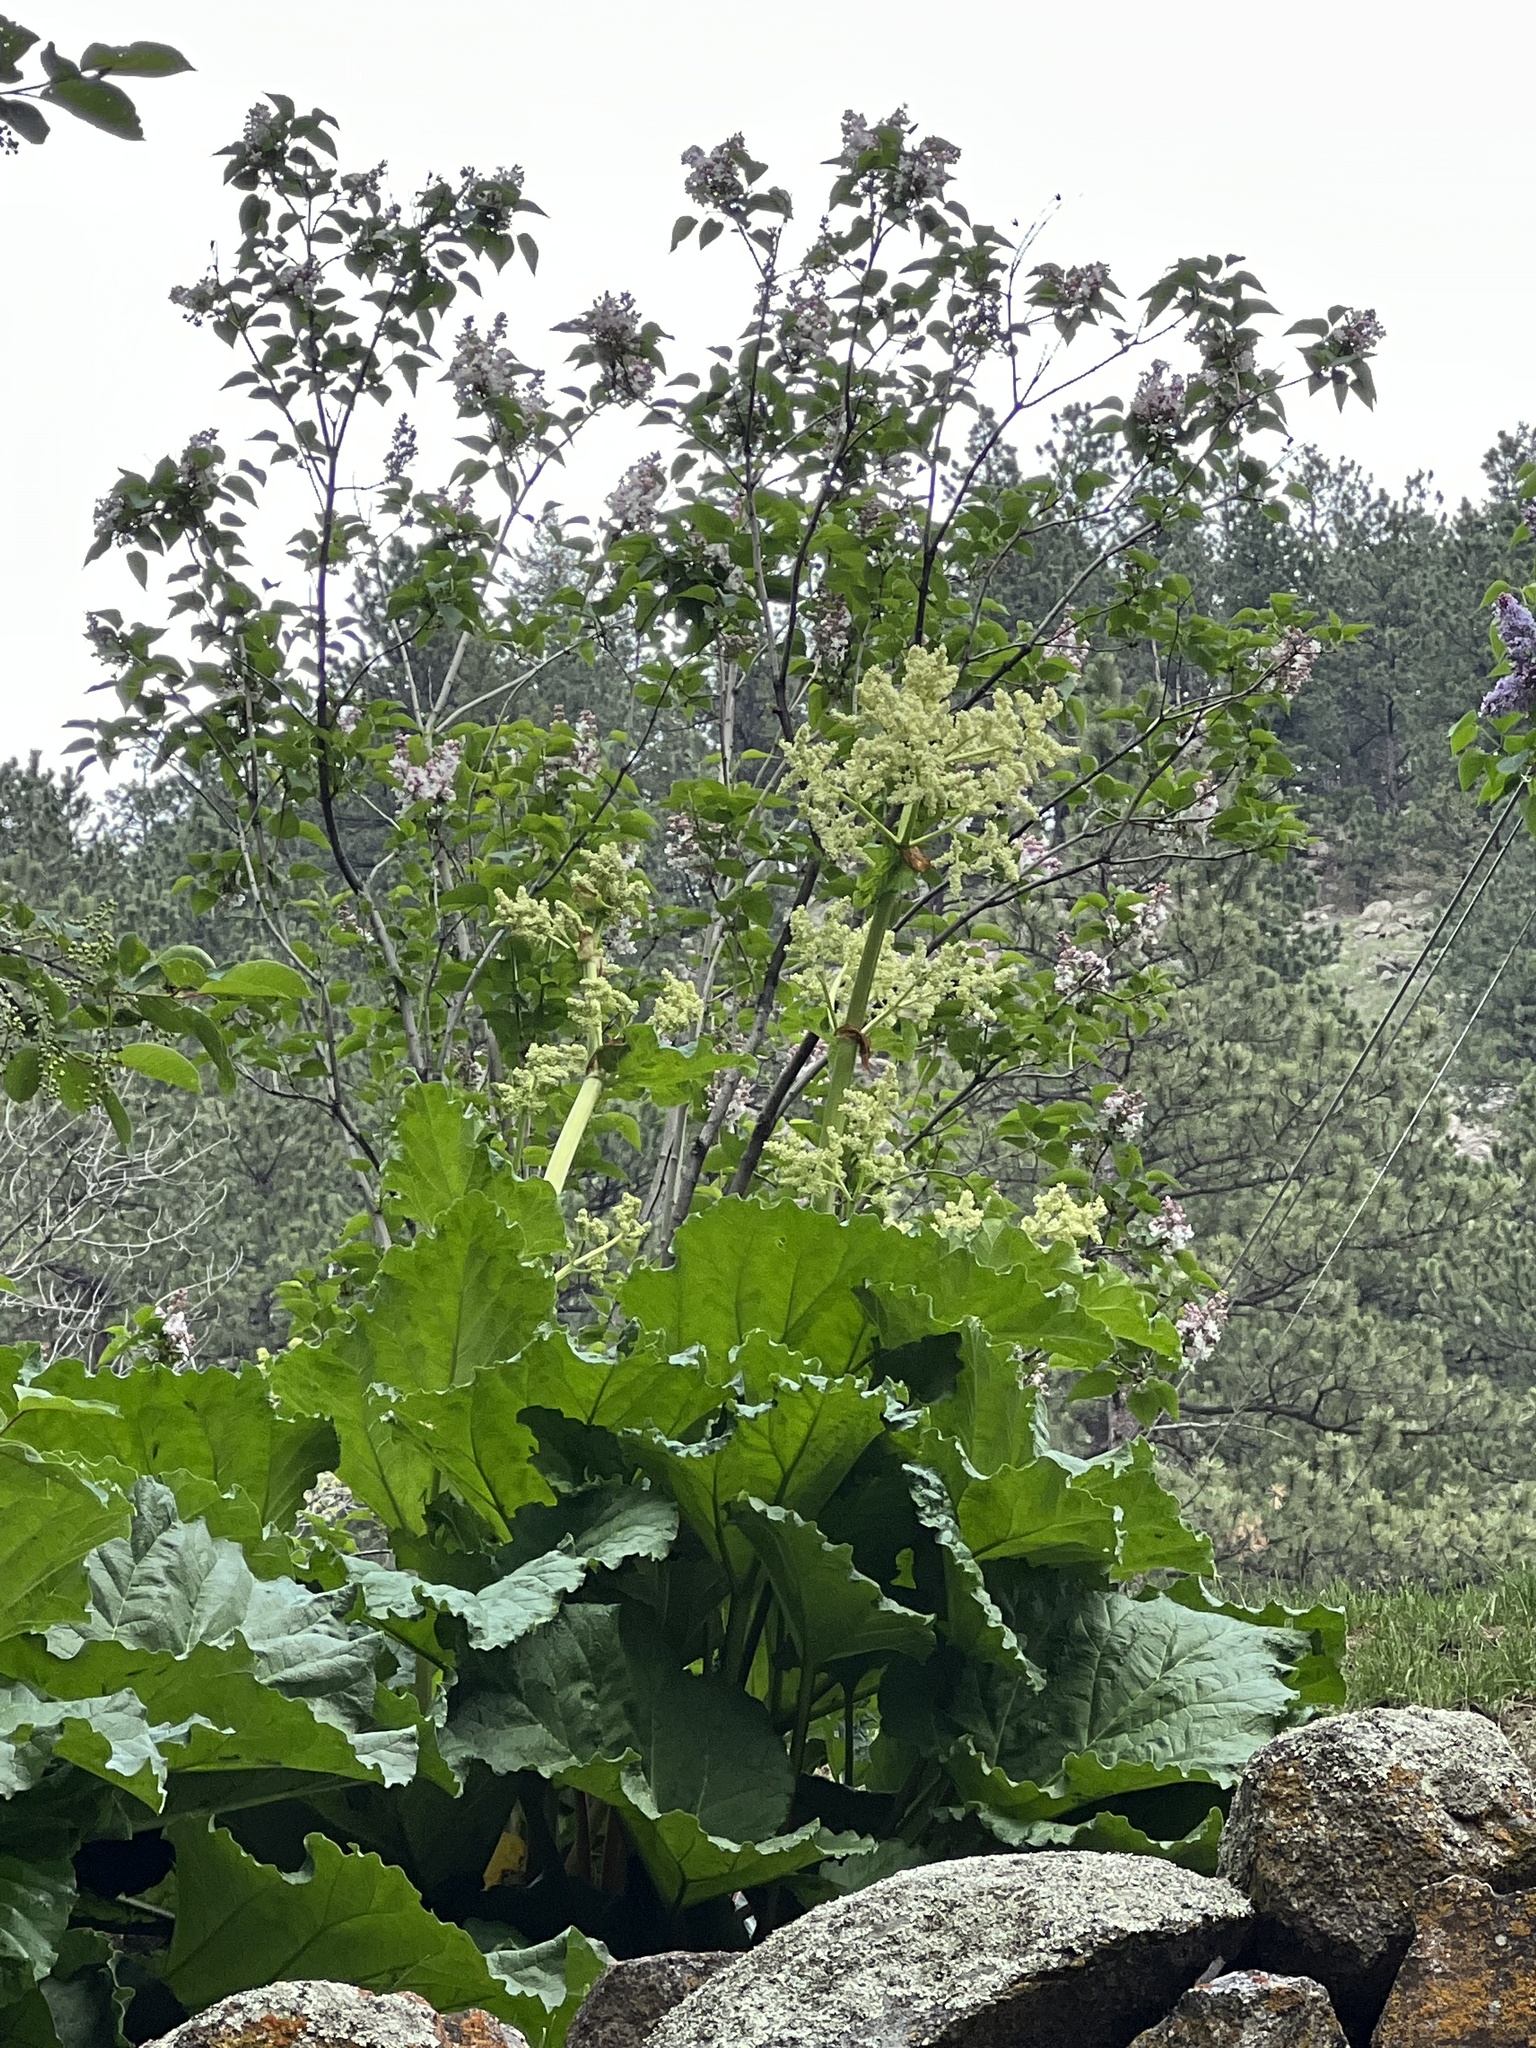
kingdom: Plantae
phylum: Tracheophyta
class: Magnoliopsida
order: Caryophyllales
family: Polygonaceae
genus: Rheum
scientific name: Rheum rhabarbarum
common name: Garden rhubarb
